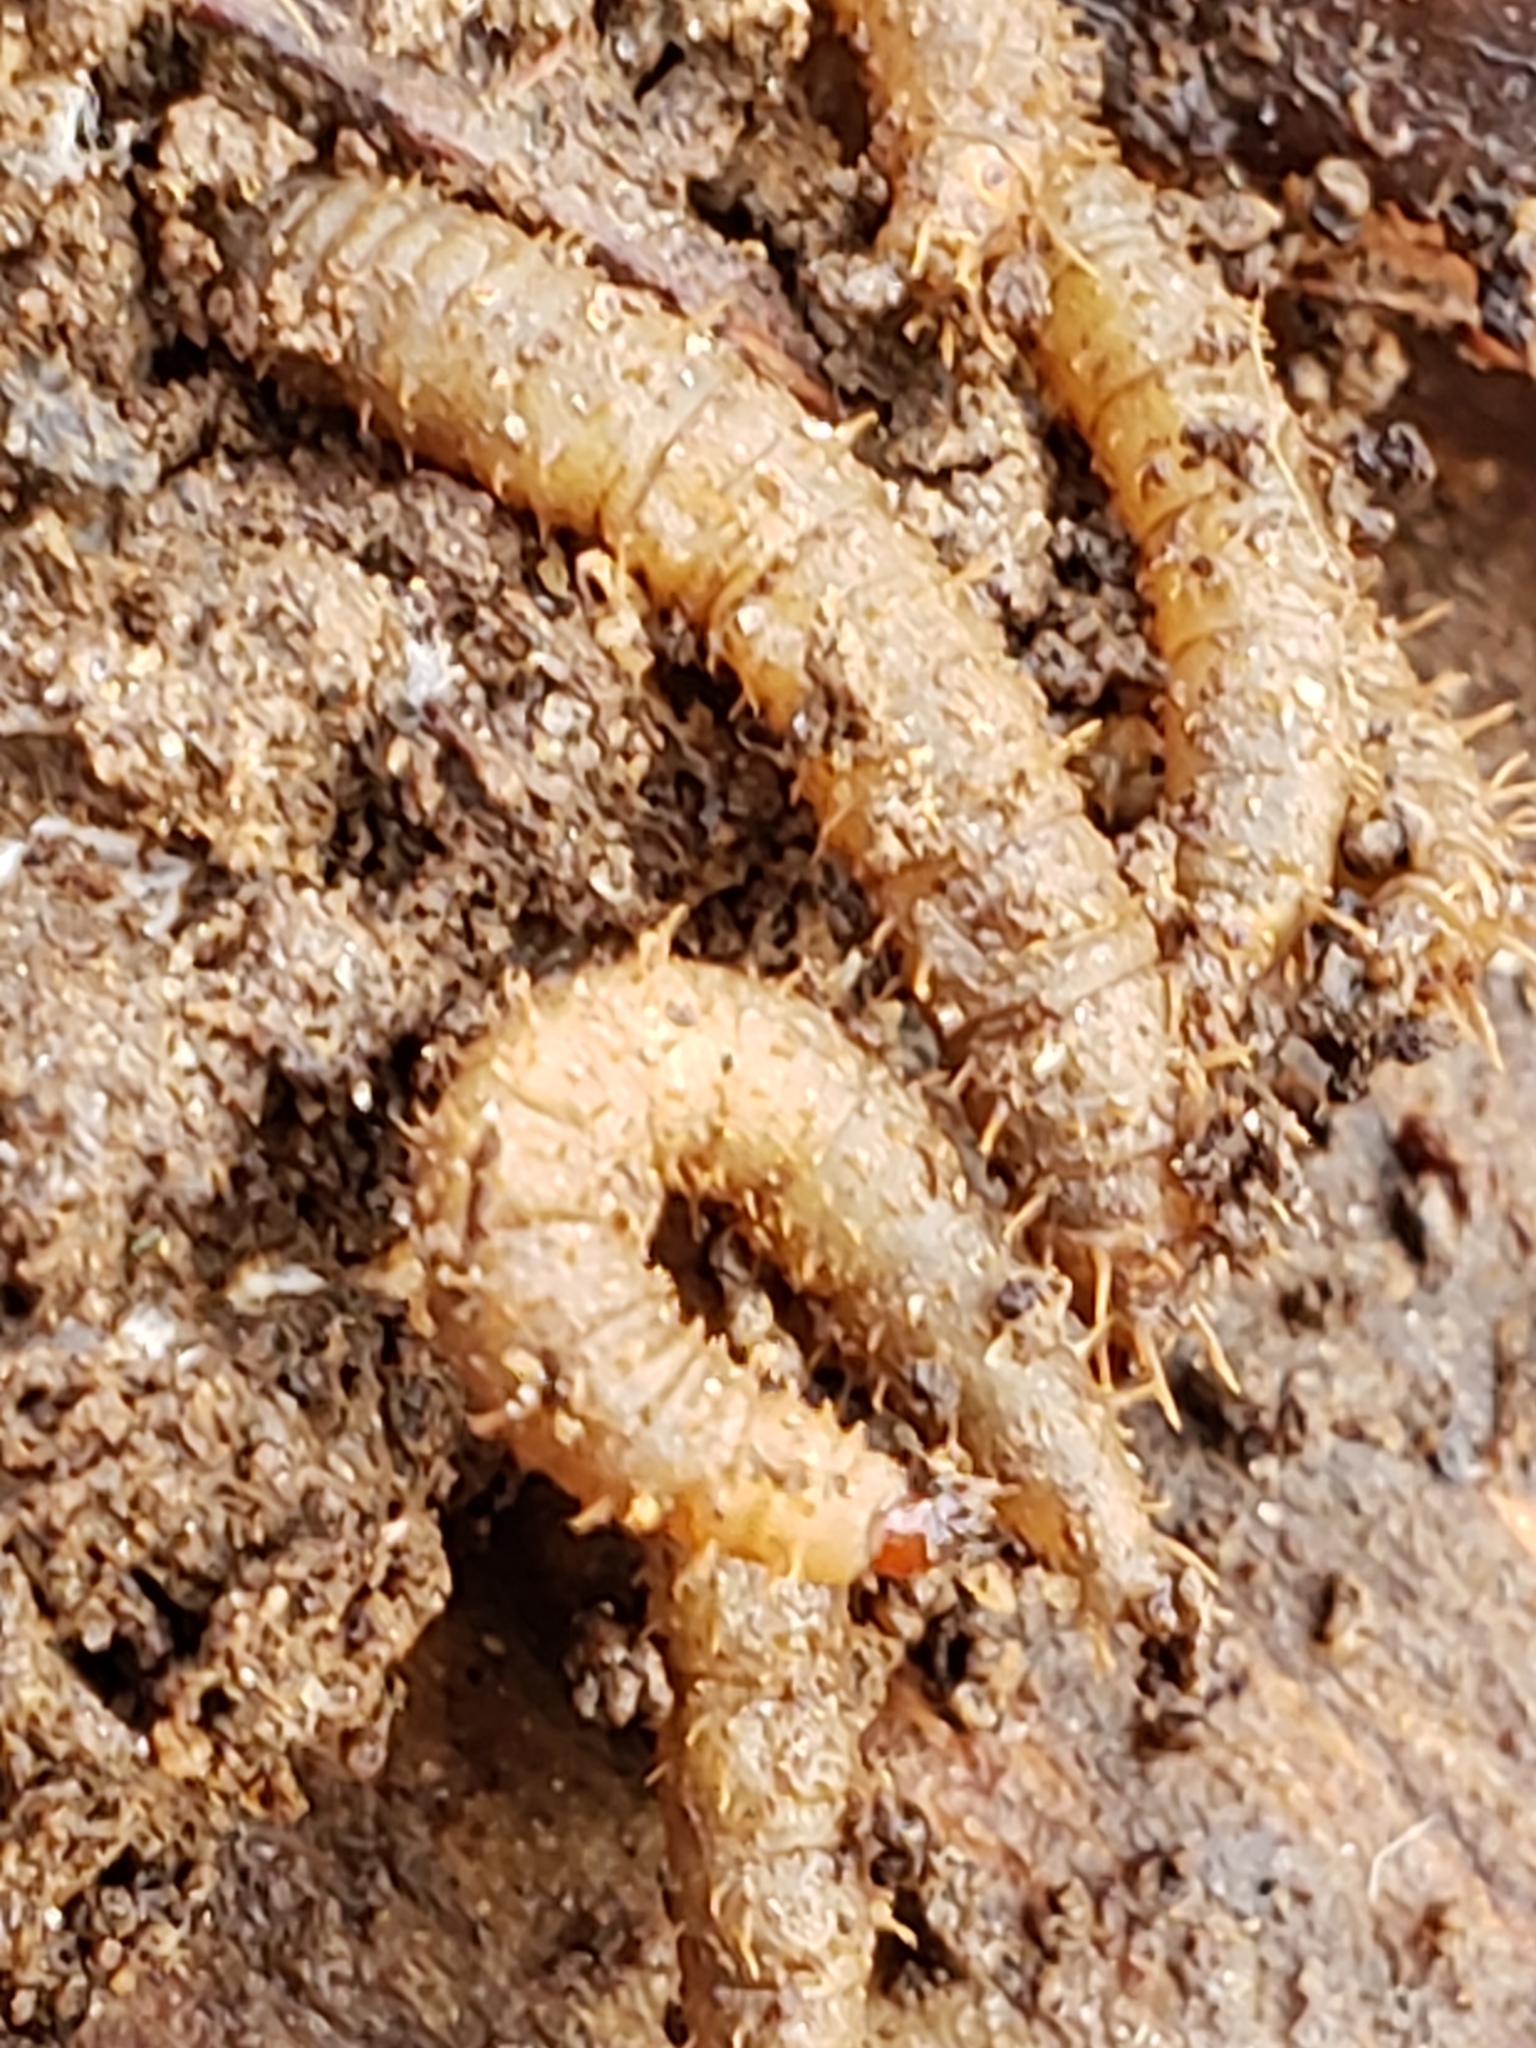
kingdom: Animalia
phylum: Arthropoda
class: Insecta
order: Diptera
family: Bibionidae
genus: Bibio
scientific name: Bibio
